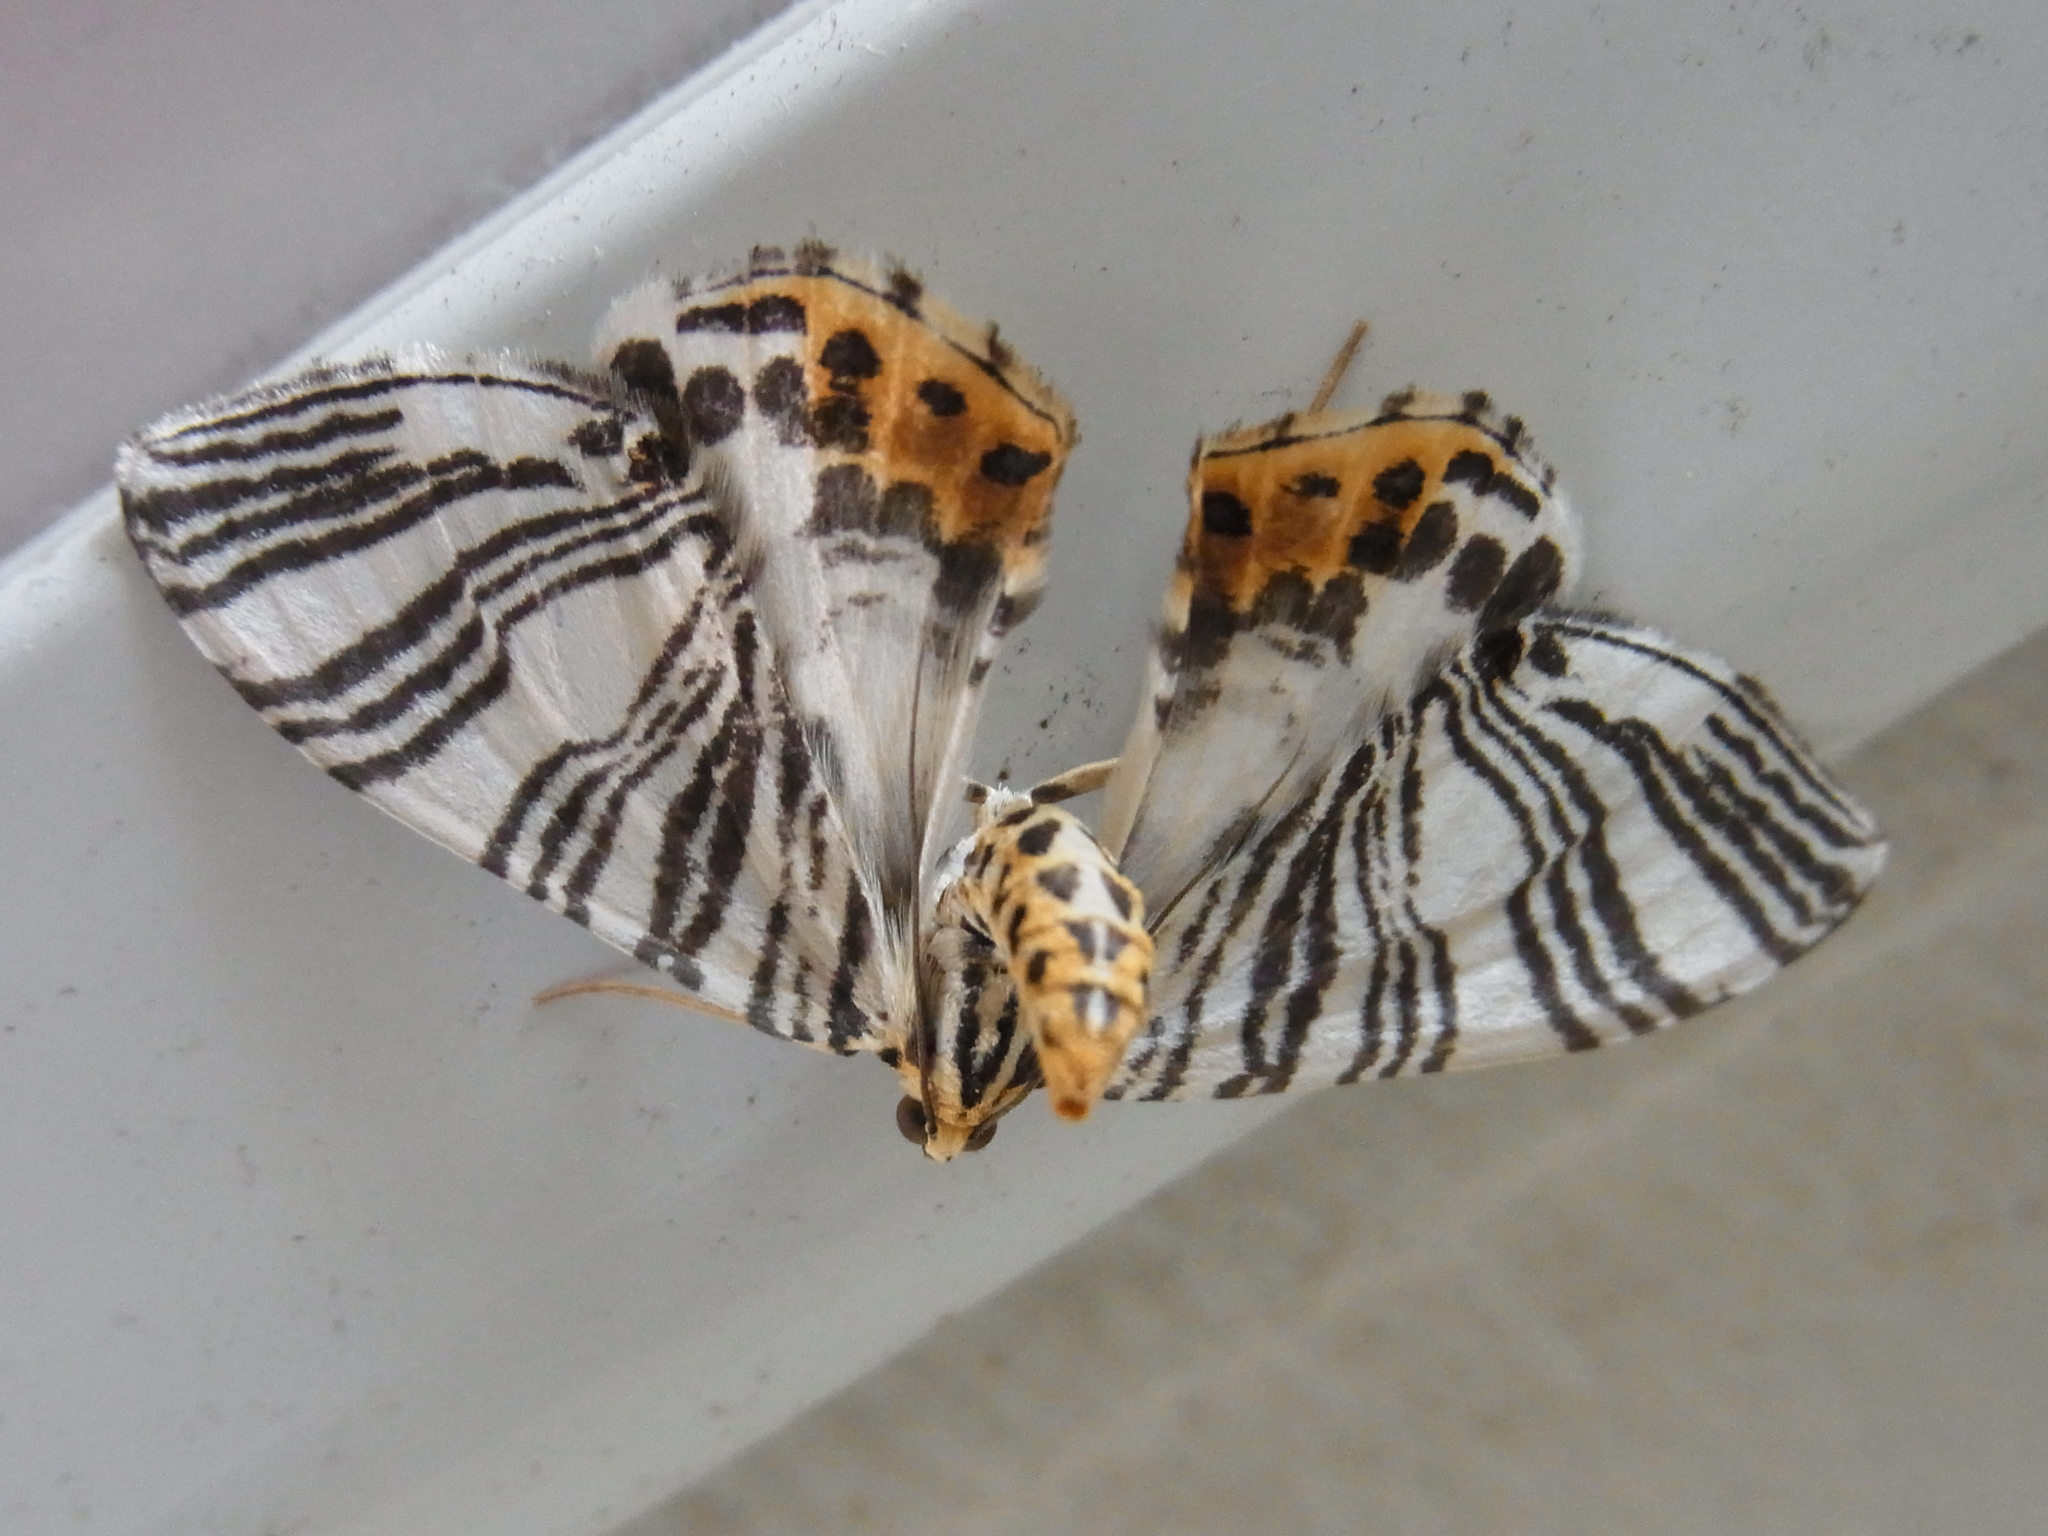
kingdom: Animalia
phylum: Arthropoda
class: Insecta
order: Lepidoptera
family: Geometridae
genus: Callabraxas
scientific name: Callabraxas compositata
